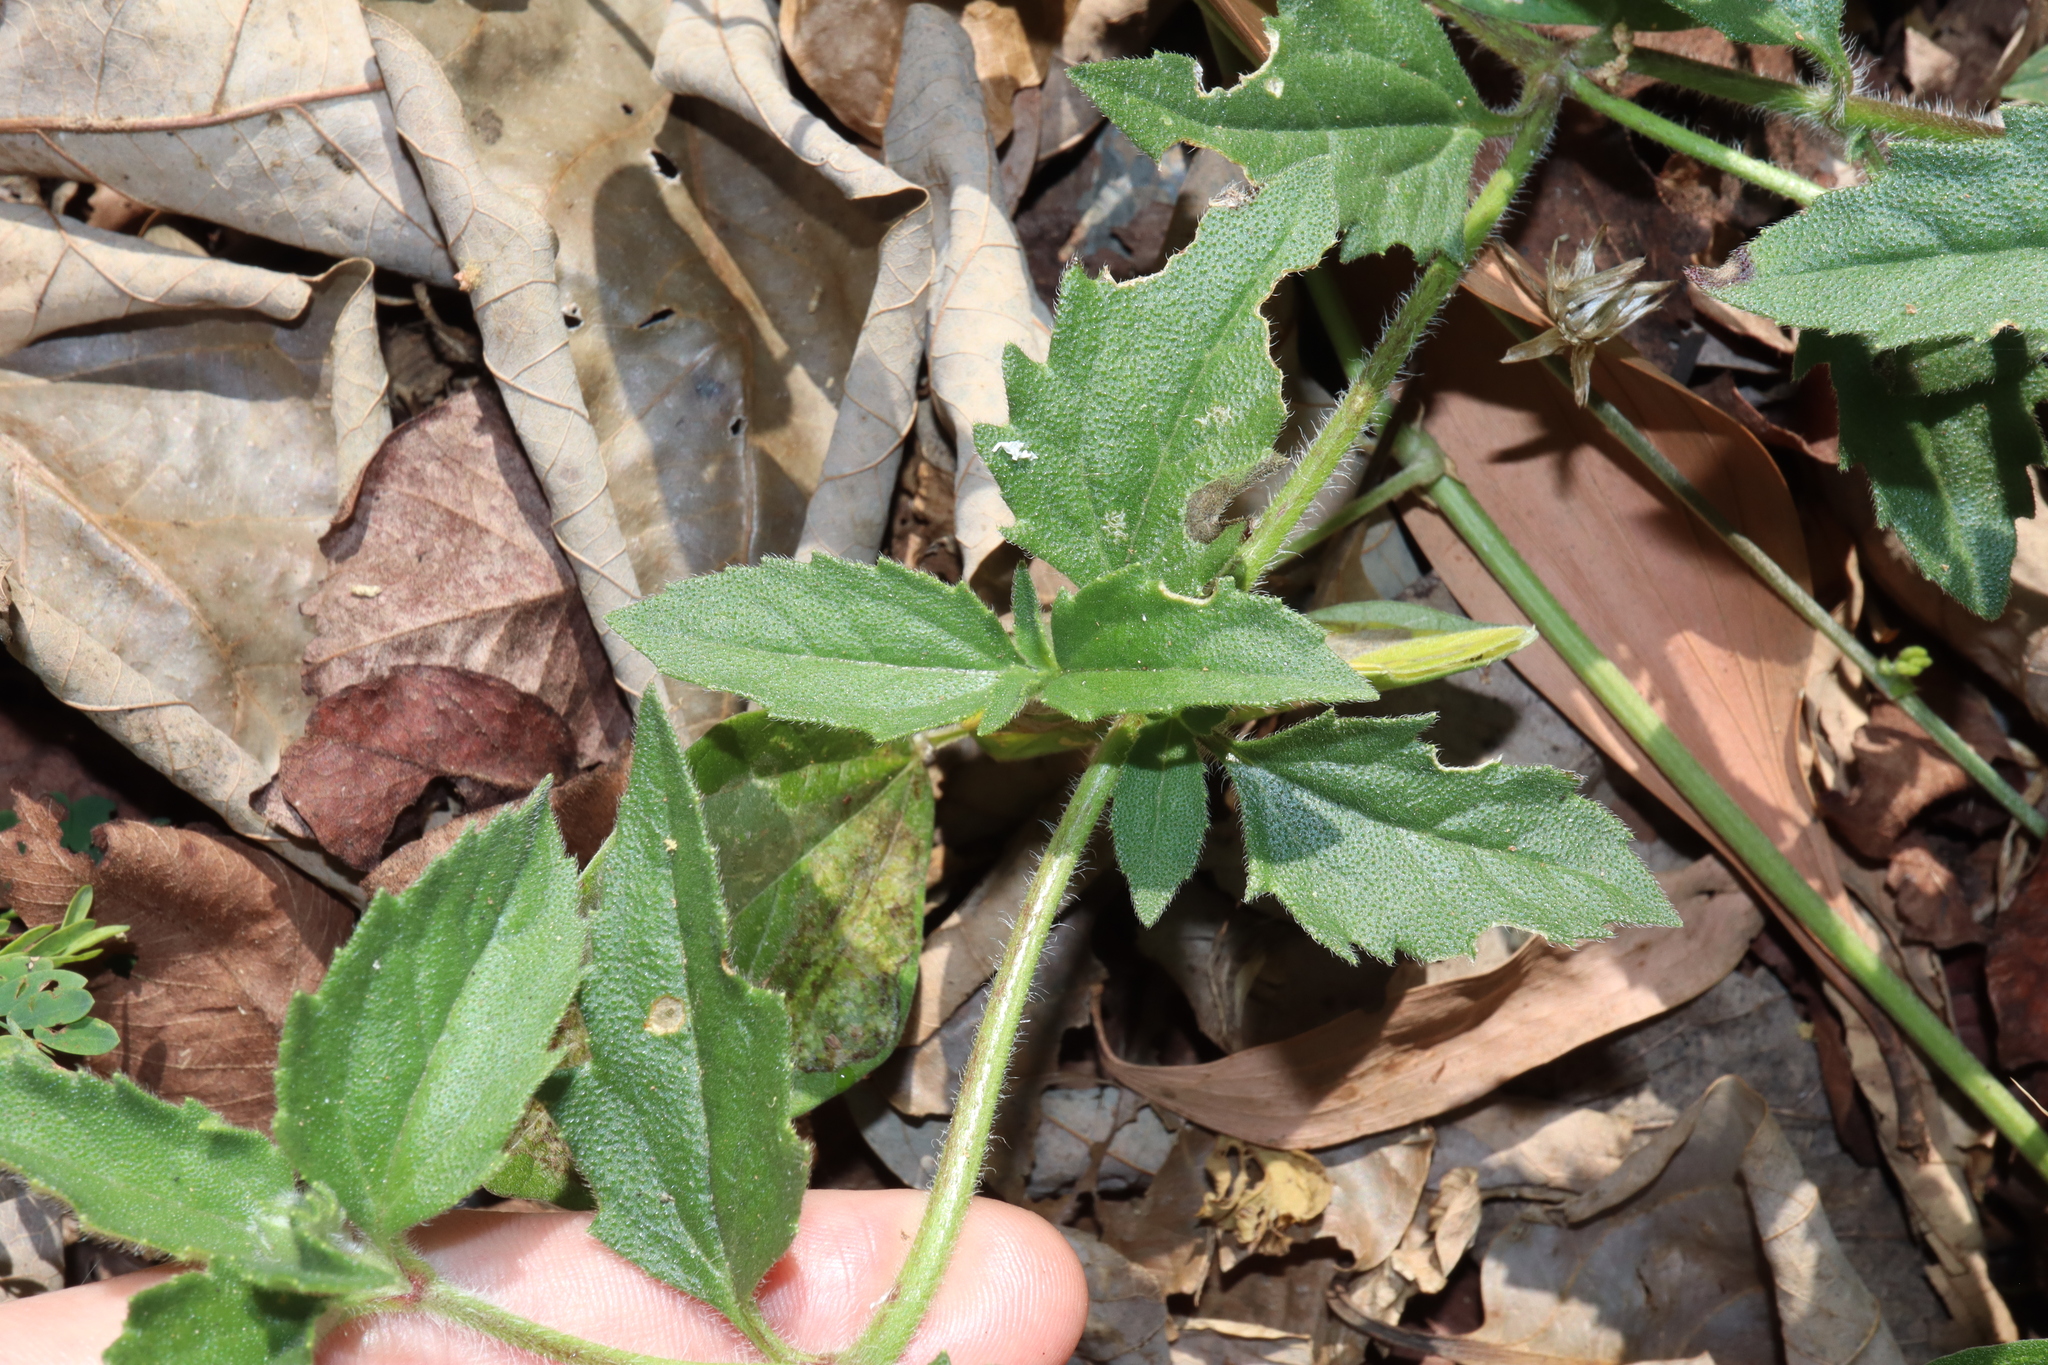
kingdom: Plantae
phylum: Tracheophyta
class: Magnoliopsida
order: Asterales
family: Asteraceae
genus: Tridax
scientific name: Tridax procumbens
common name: Coatbuttons
